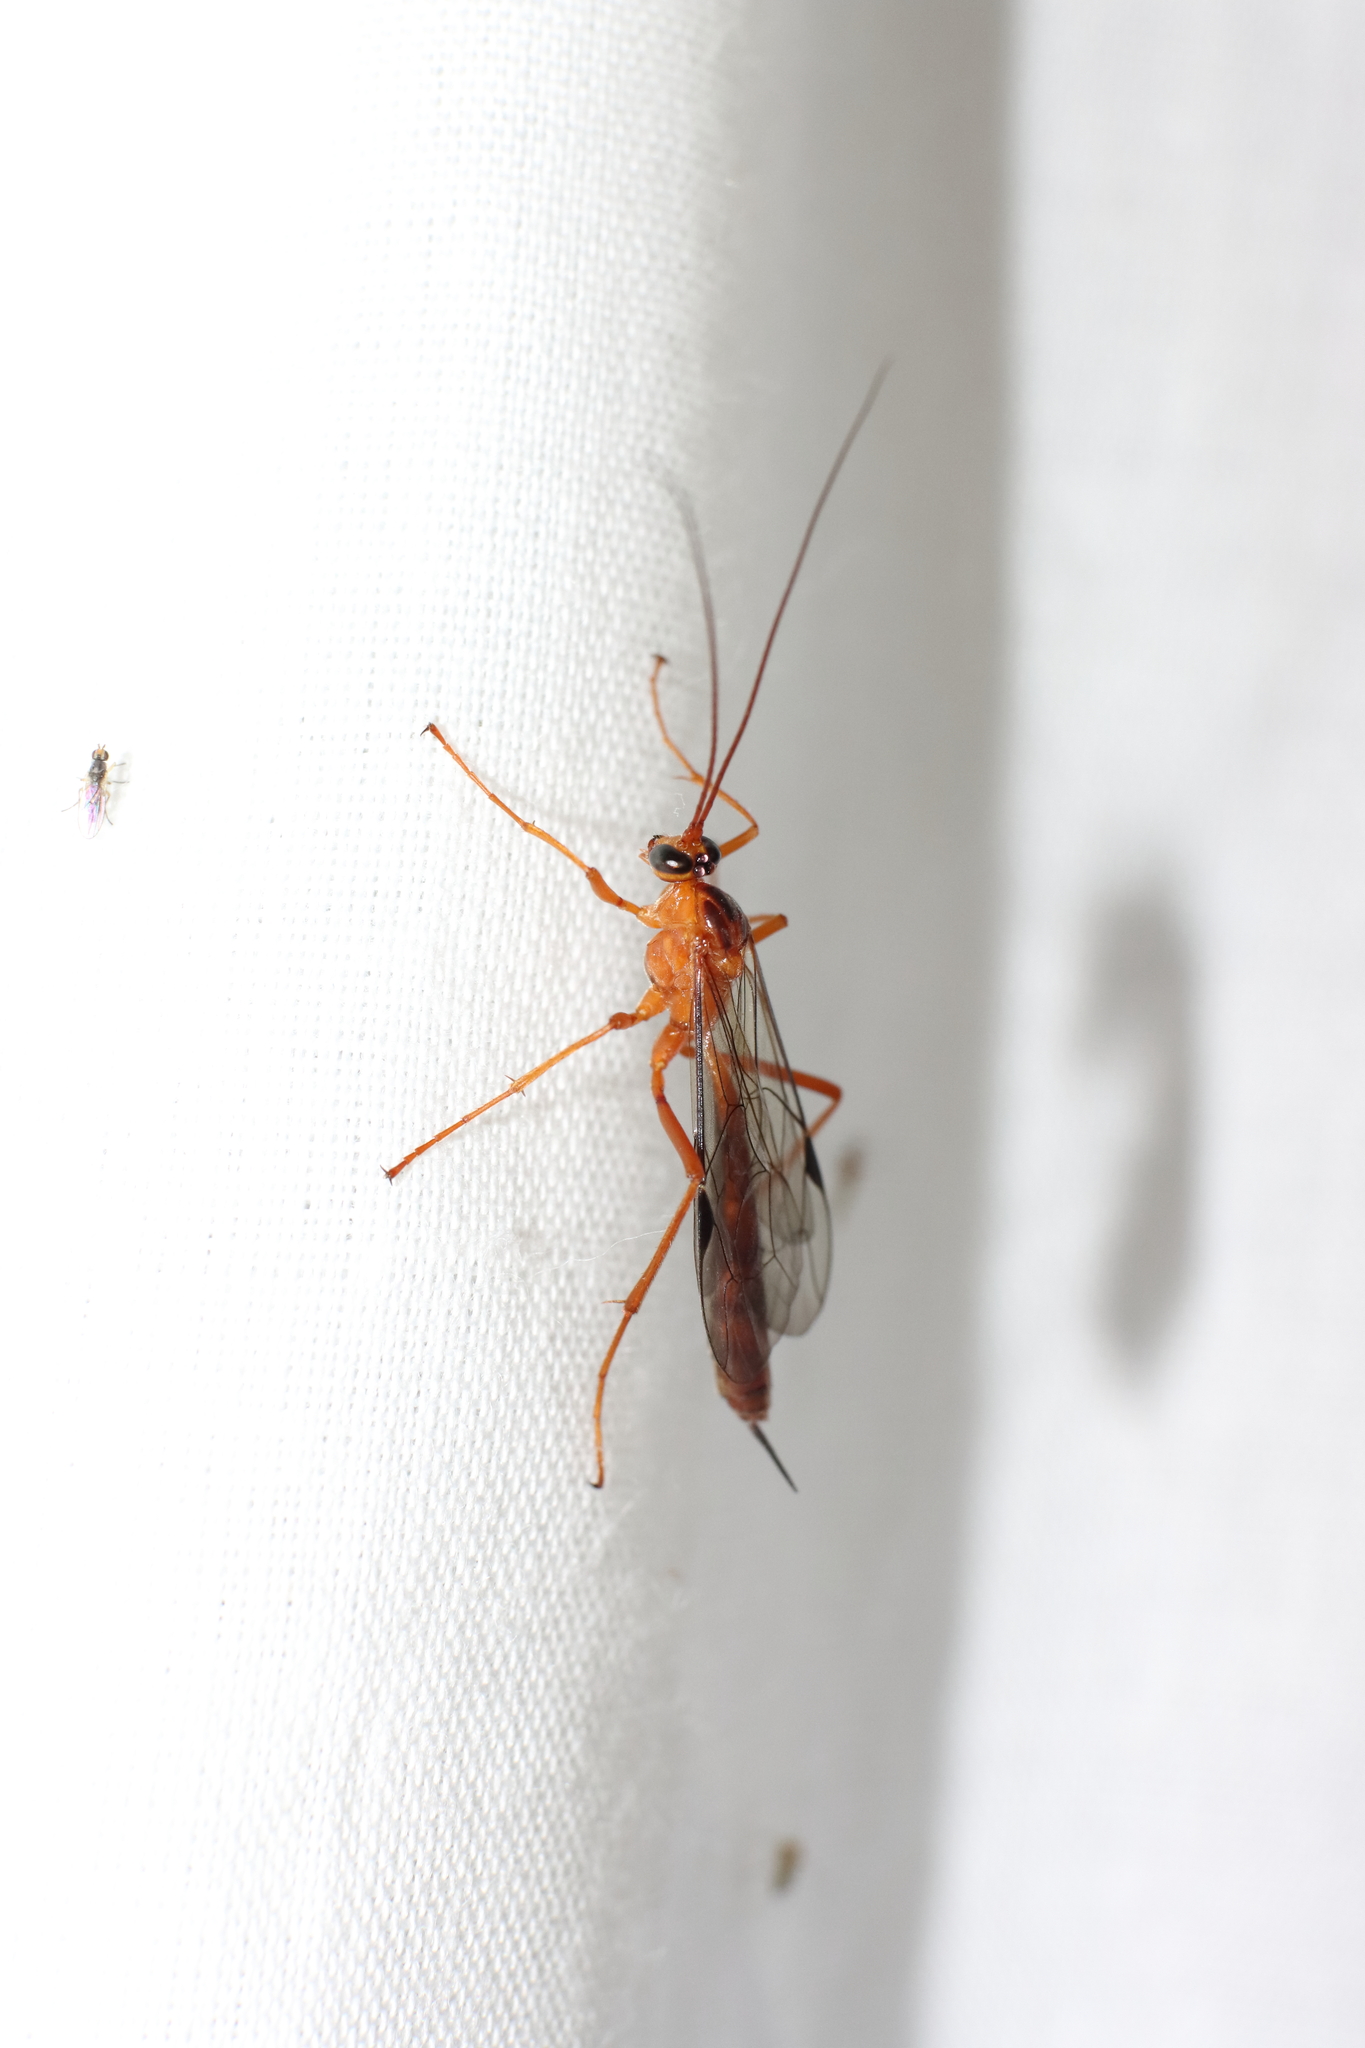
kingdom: Animalia
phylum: Arthropoda
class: Insecta
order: Hymenoptera
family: Ichneumonidae
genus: Netelia
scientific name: Netelia ephippiata
